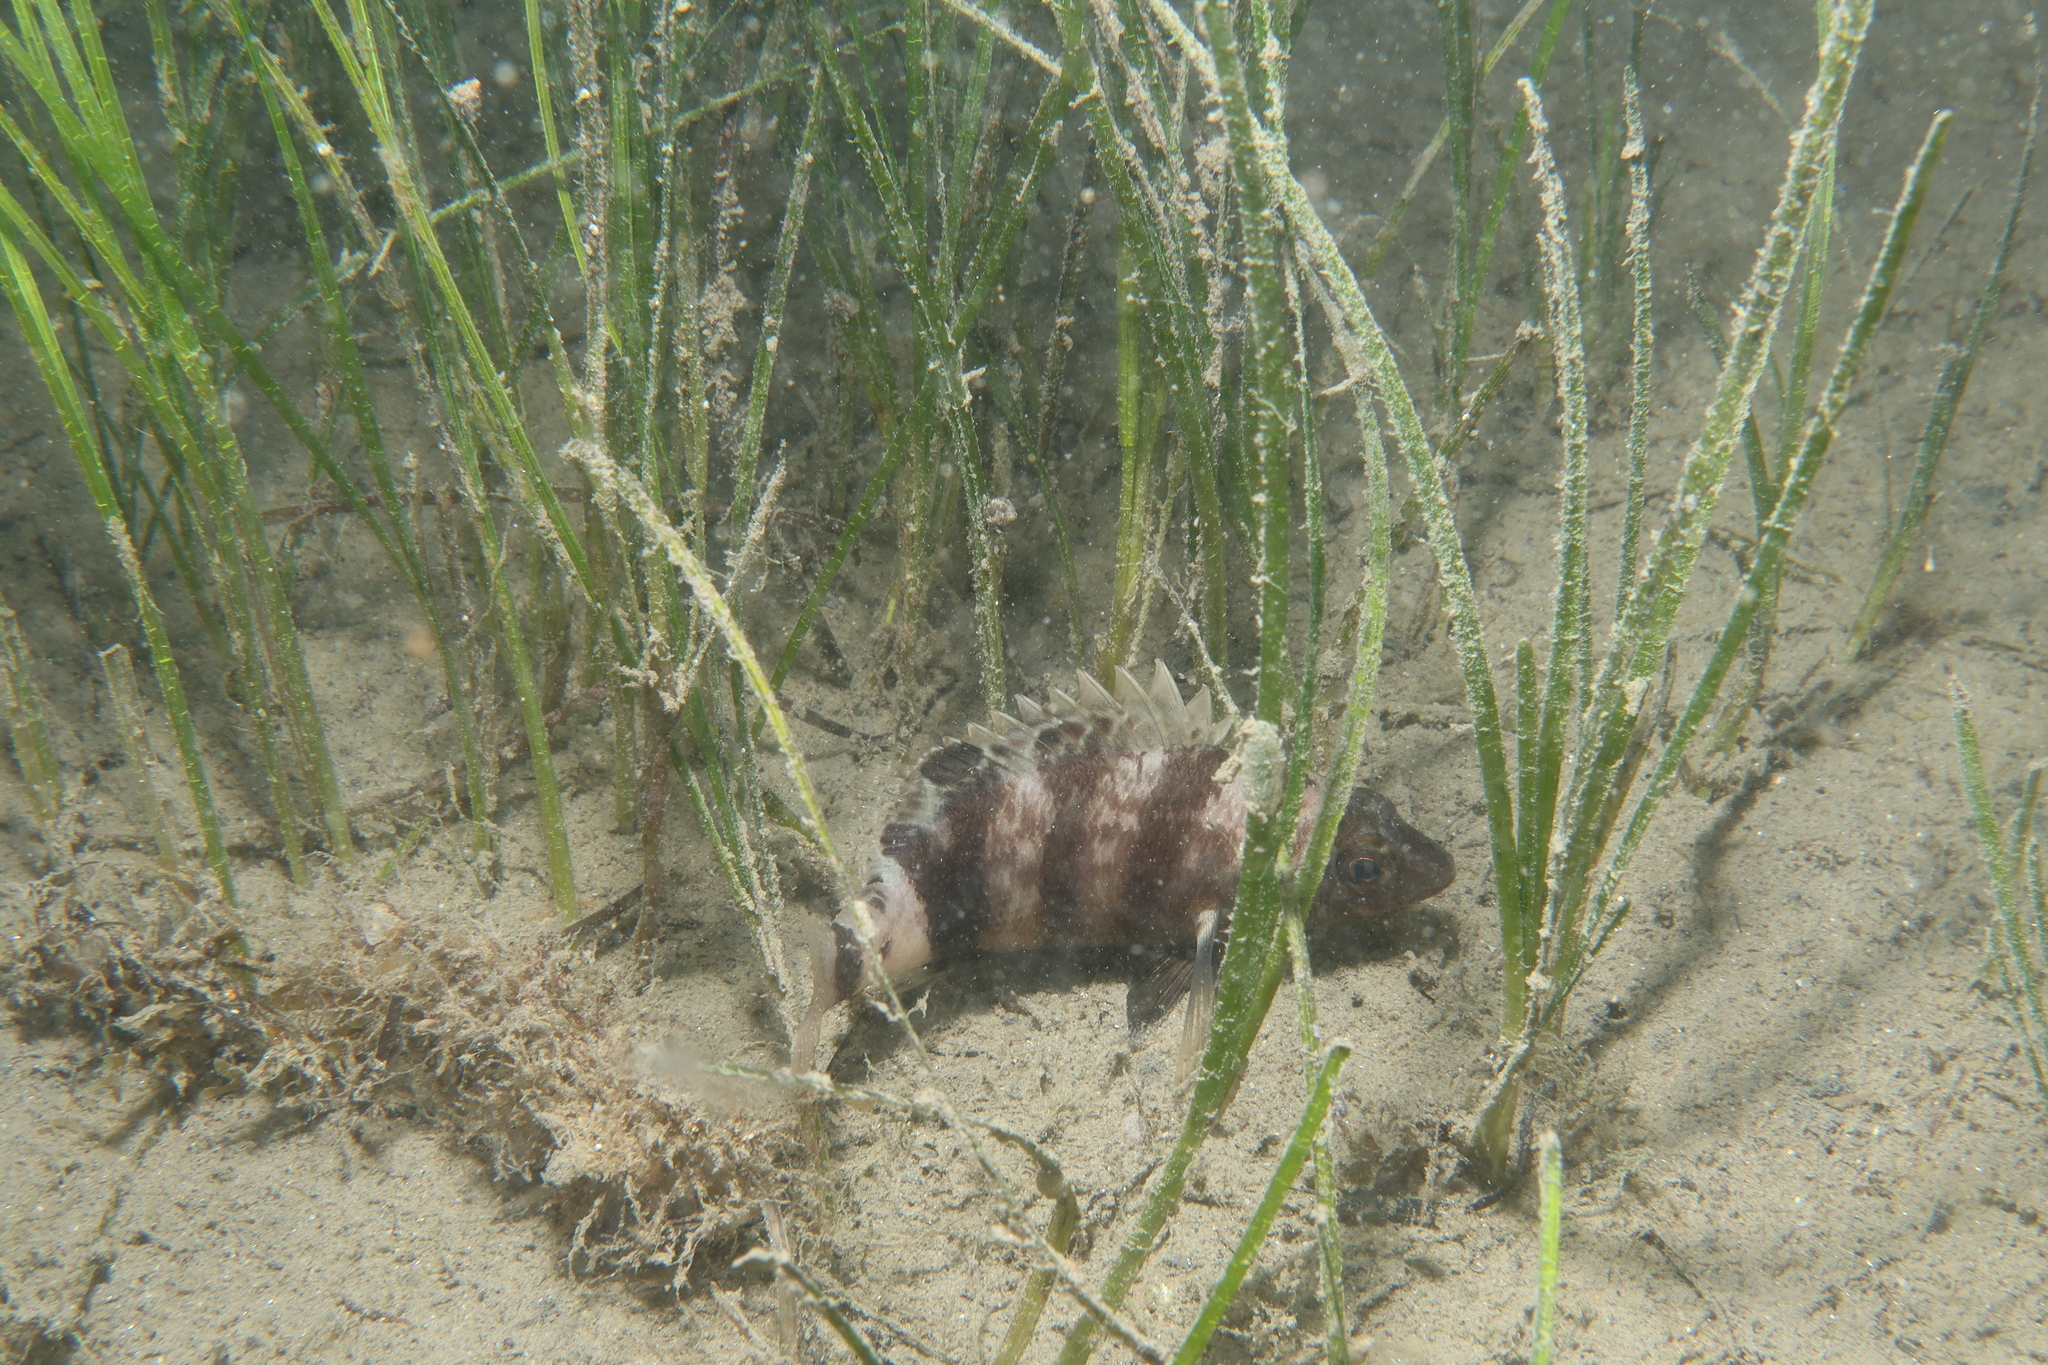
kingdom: Animalia
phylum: Chordata
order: Perciformes
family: Serranidae
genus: Serranus
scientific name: Serranus hepatus
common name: Brown comber
